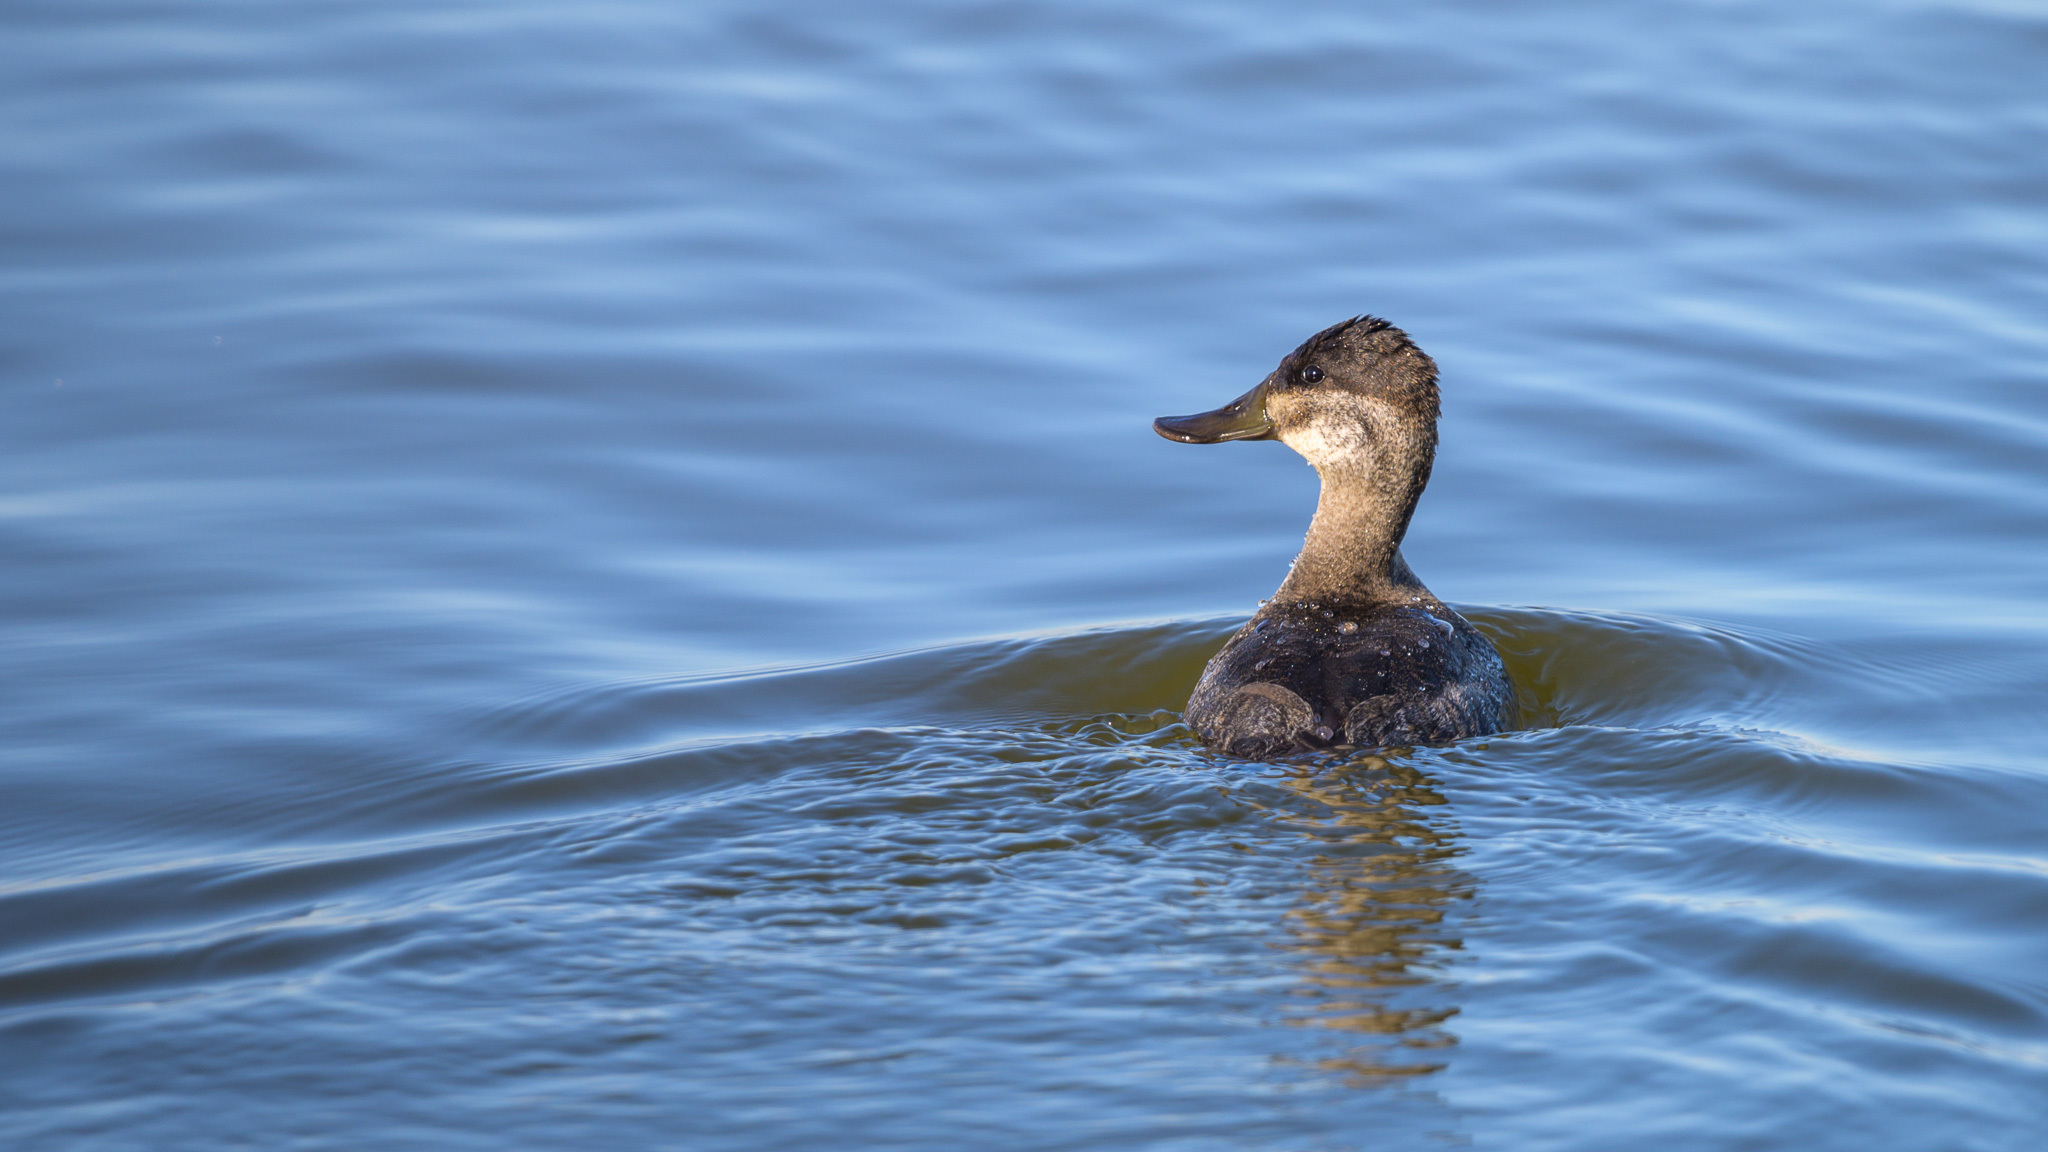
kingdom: Animalia
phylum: Chordata
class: Aves
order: Anseriformes
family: Anatidae
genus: Oxyura
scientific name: Oxyura jamaicensis
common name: Ruddy duck
